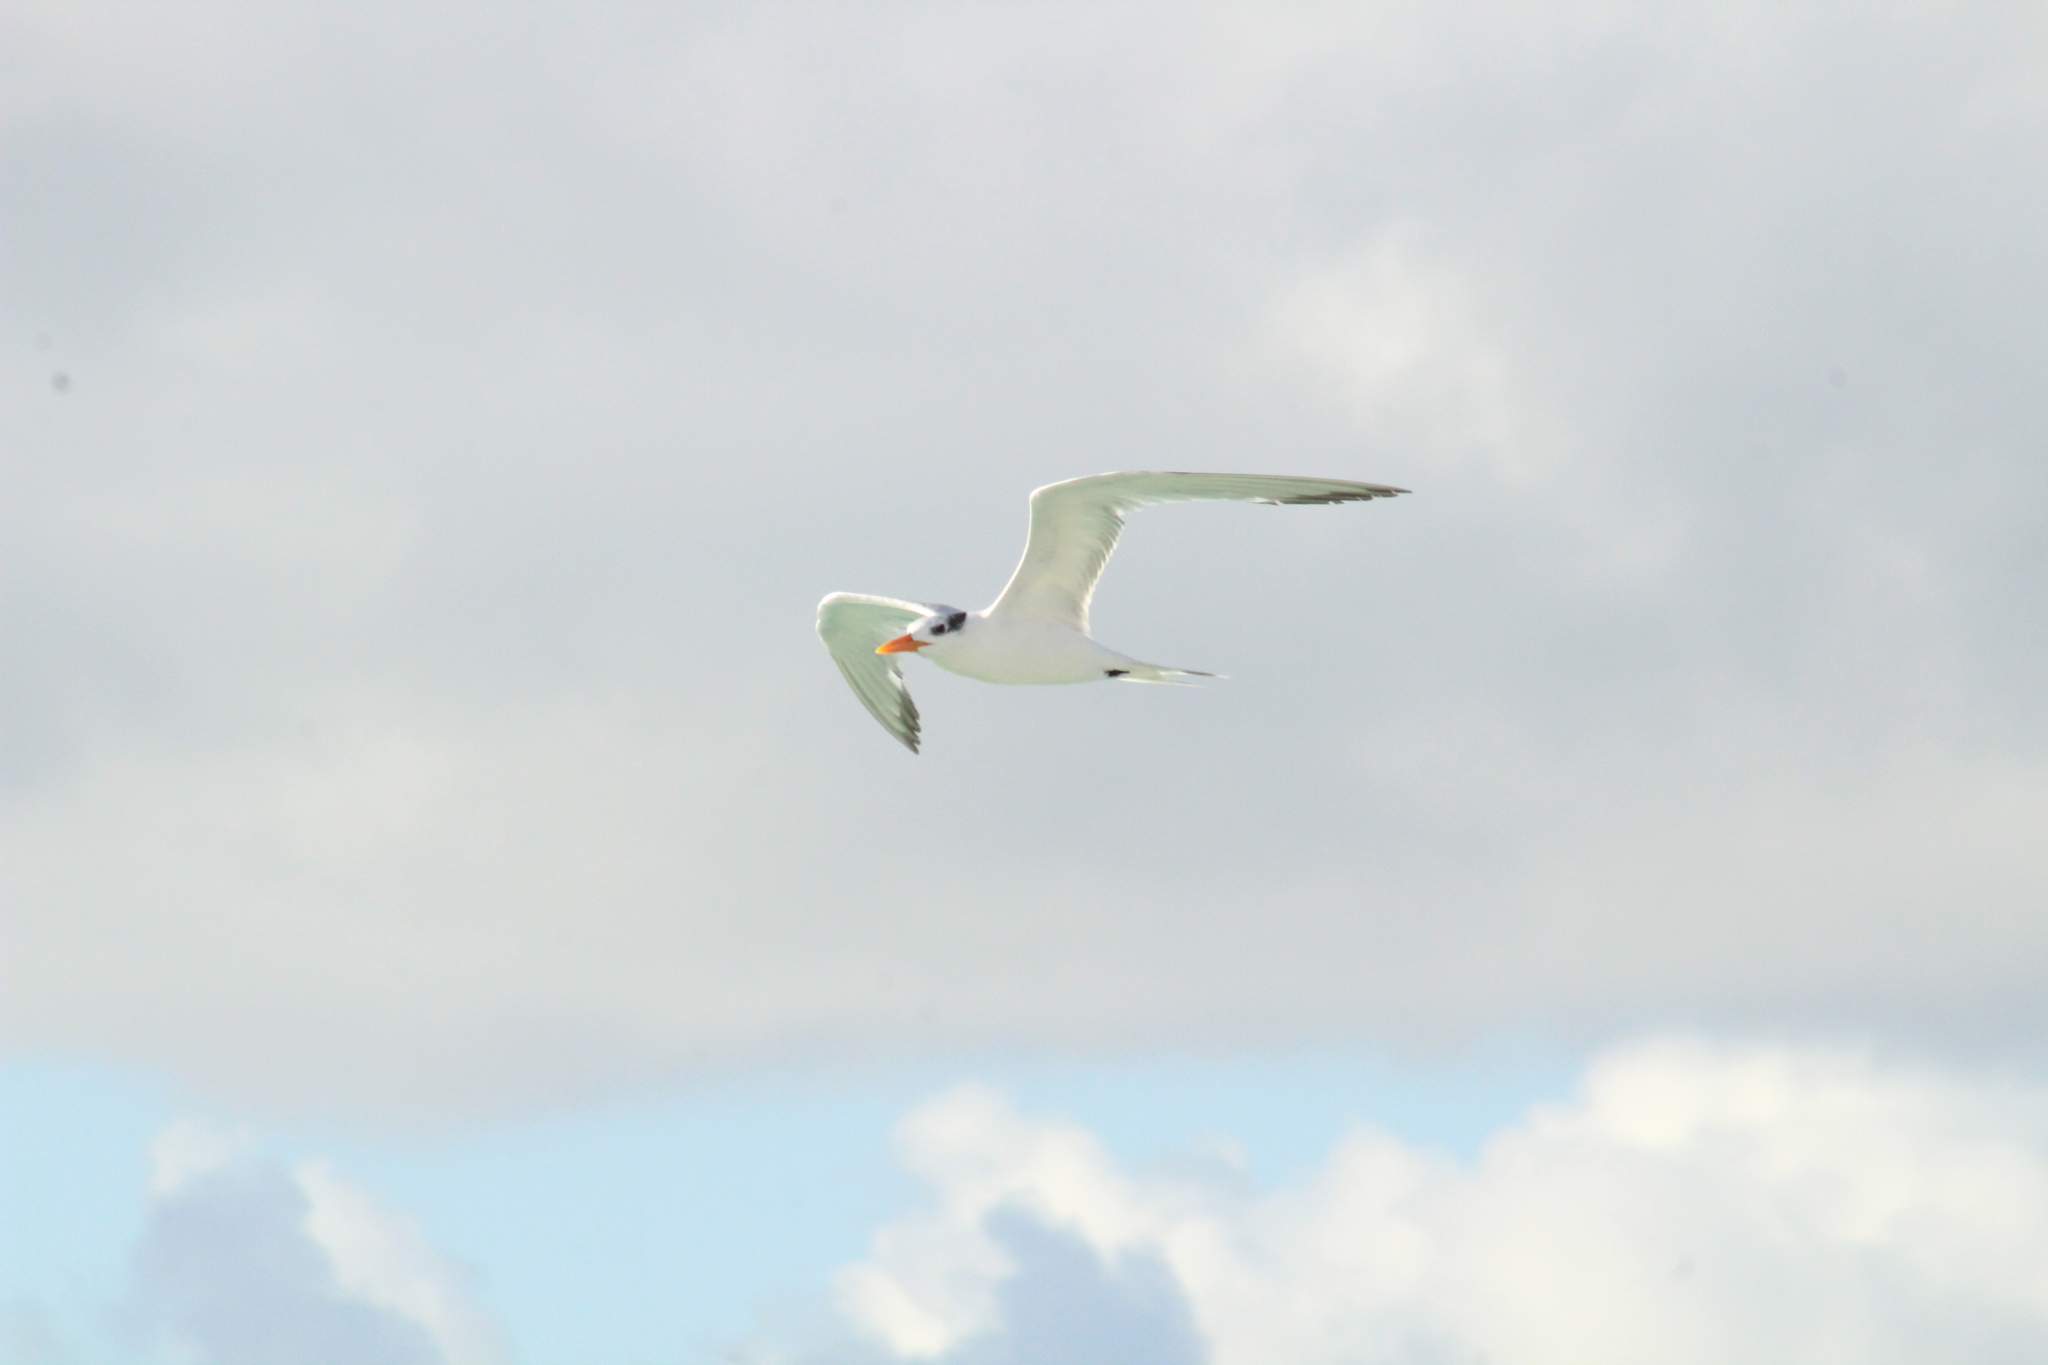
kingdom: Animalia
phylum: Chordata
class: Aves
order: Charadriiformes
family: Laridae
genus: Thalasseus
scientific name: Thalasseus maximus
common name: Royal tern
